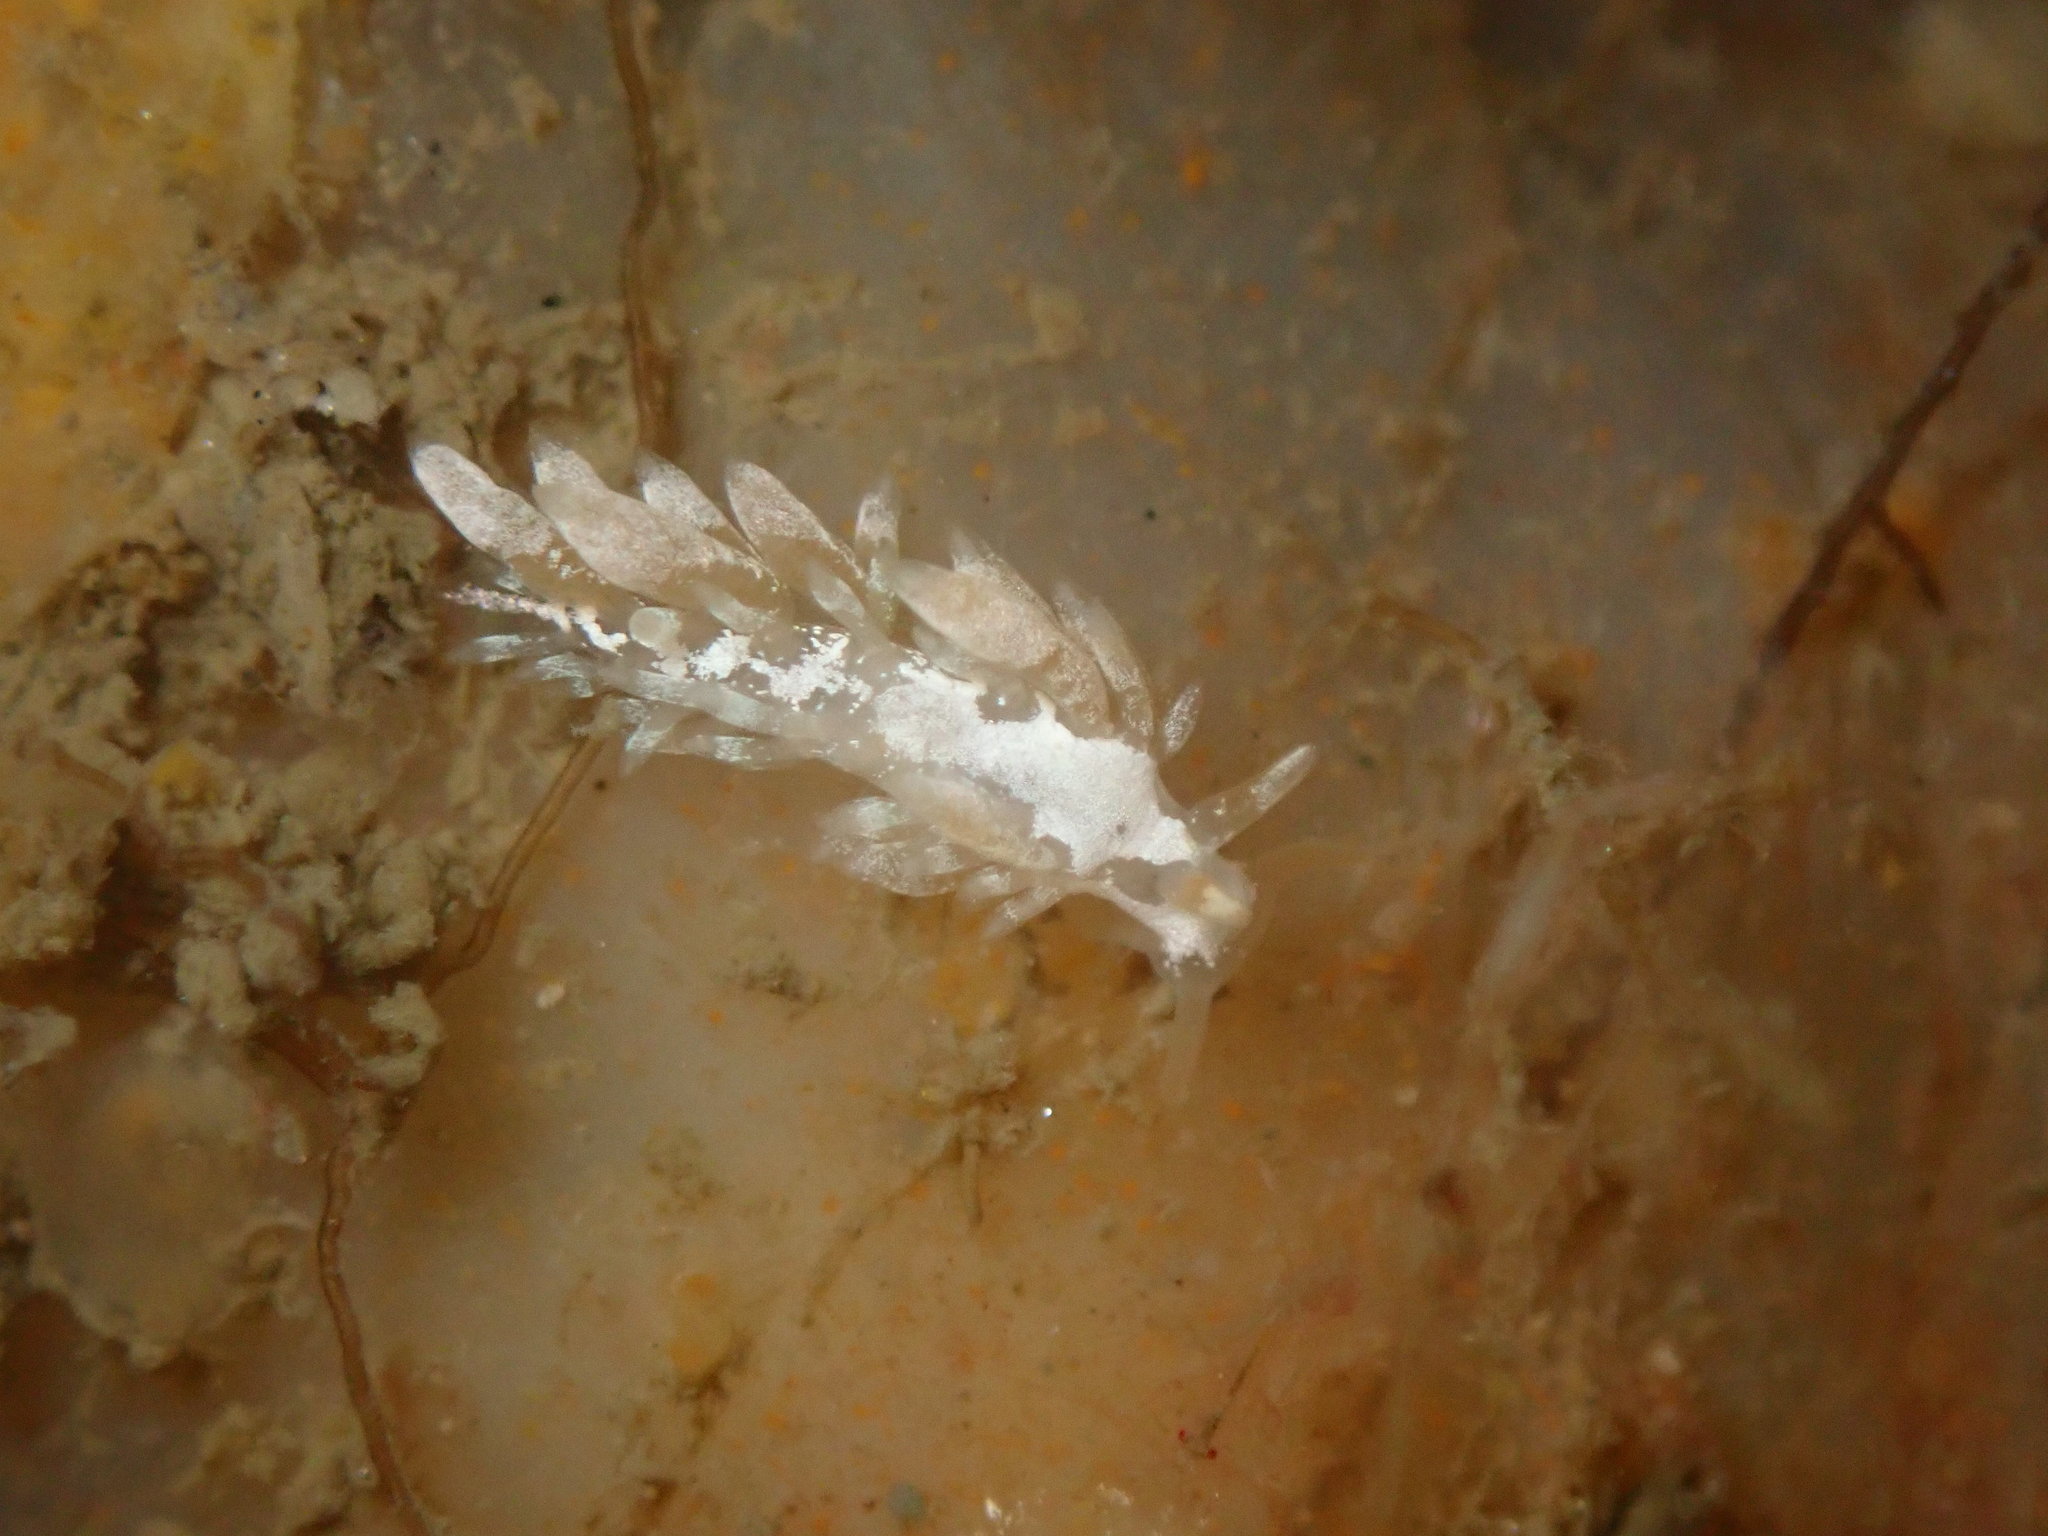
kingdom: Animalia
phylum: Mollusca
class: Gastropoda
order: Nudibranchia
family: Trinchesiidae
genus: Trinchesia
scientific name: Trinchesia albocrusta
